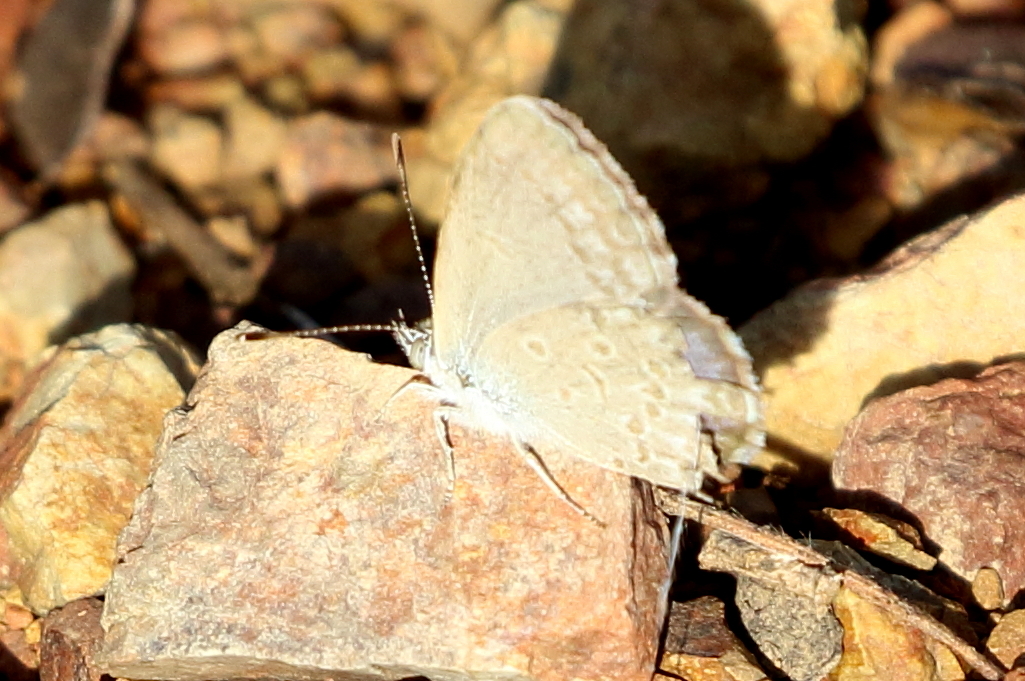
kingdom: Animalia
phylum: Arthropoda
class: Insecta
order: Lepidoptera
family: Lycaenidae
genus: Zizina
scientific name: Zizina labradus
